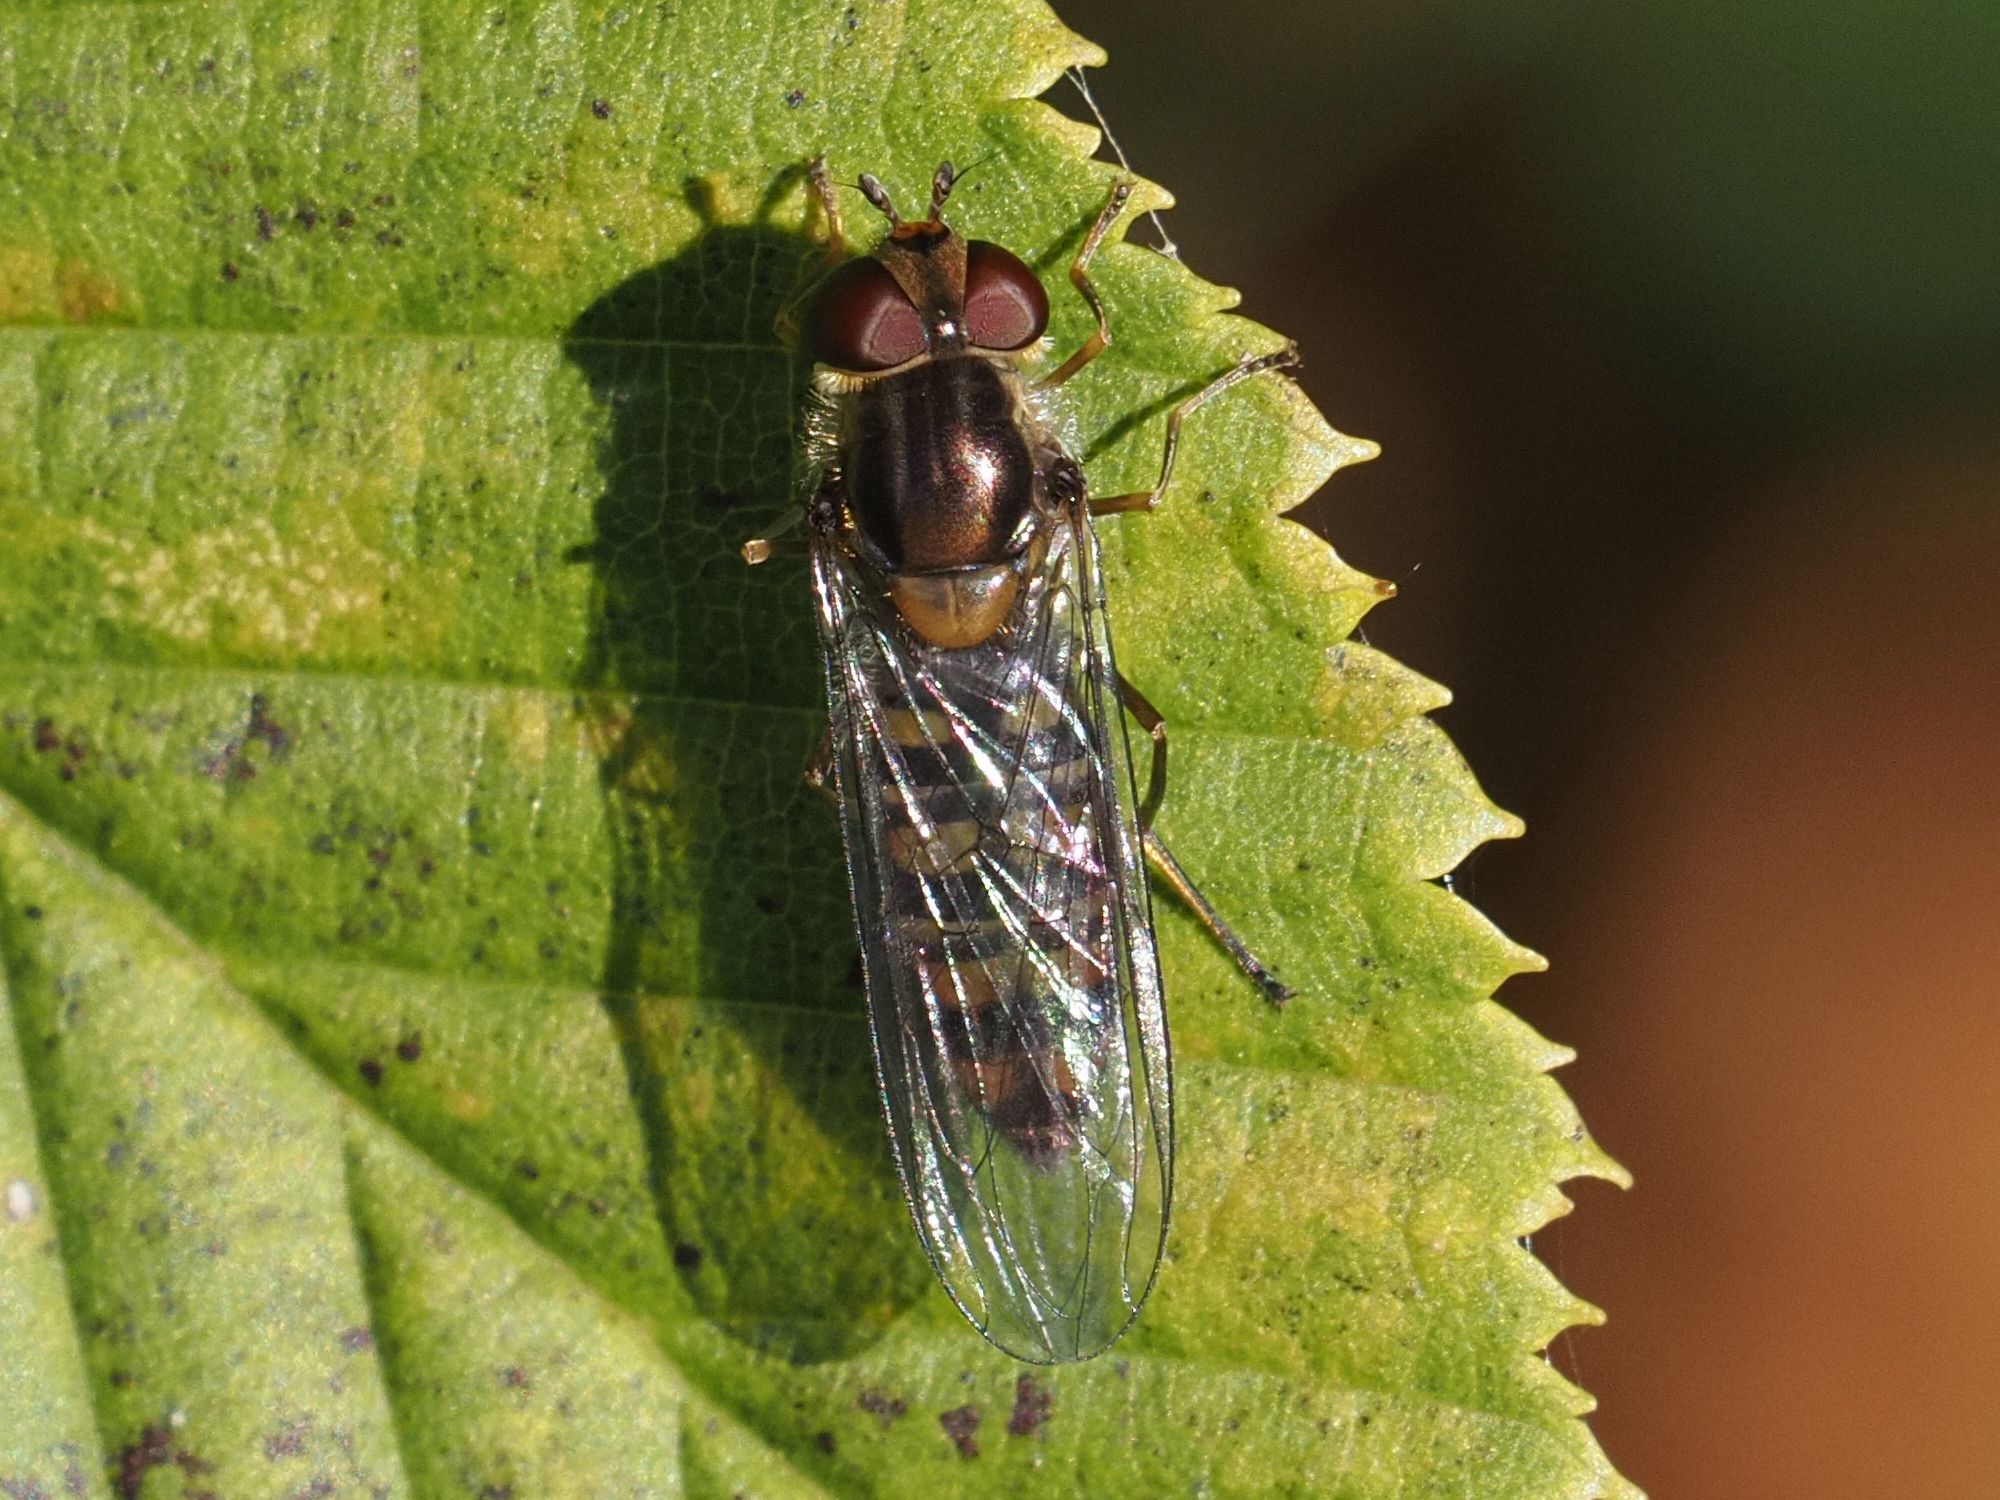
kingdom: Animalia
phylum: Arthropoda
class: Insecta
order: Diptera
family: Syrphidae
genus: Episyrphus
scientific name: Episyrphus balteatus
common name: Marmalade hoverfly
